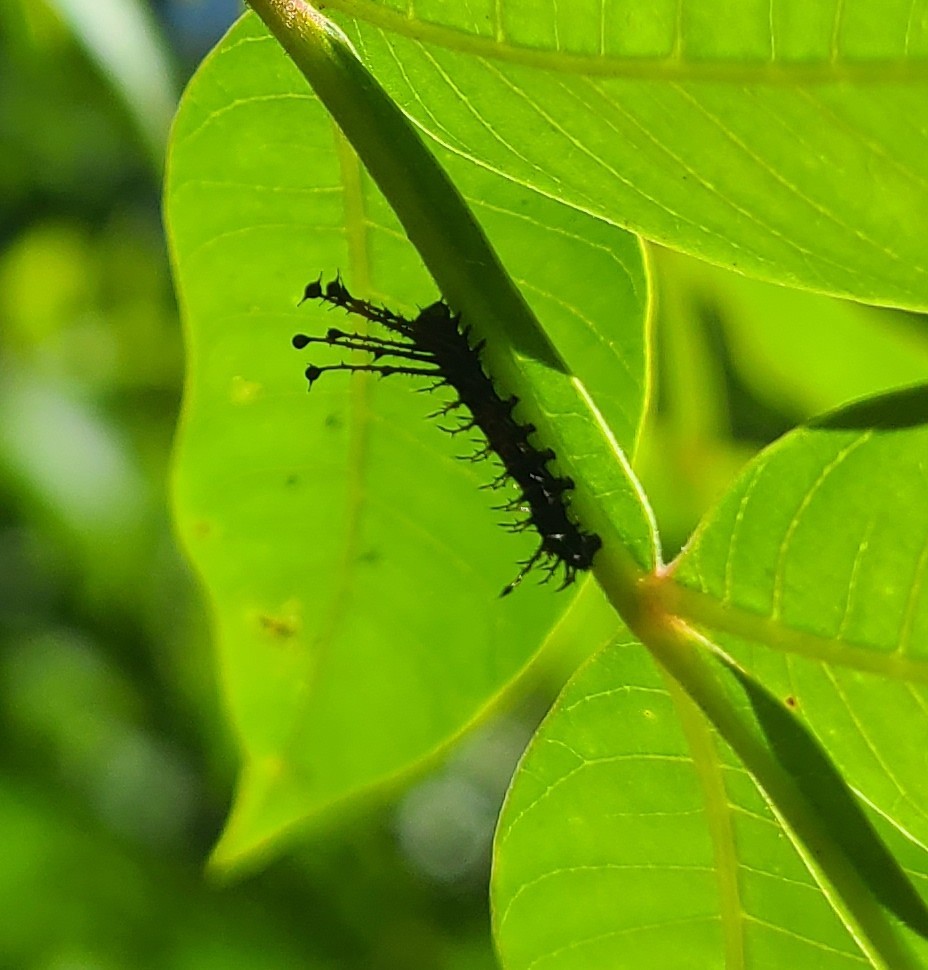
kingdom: Animalia
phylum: Arthropoda
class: Insecta
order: Lepidoptera
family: Saturniidae
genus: Citheronia
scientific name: Citheronia regalis
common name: Hickory horned devil
